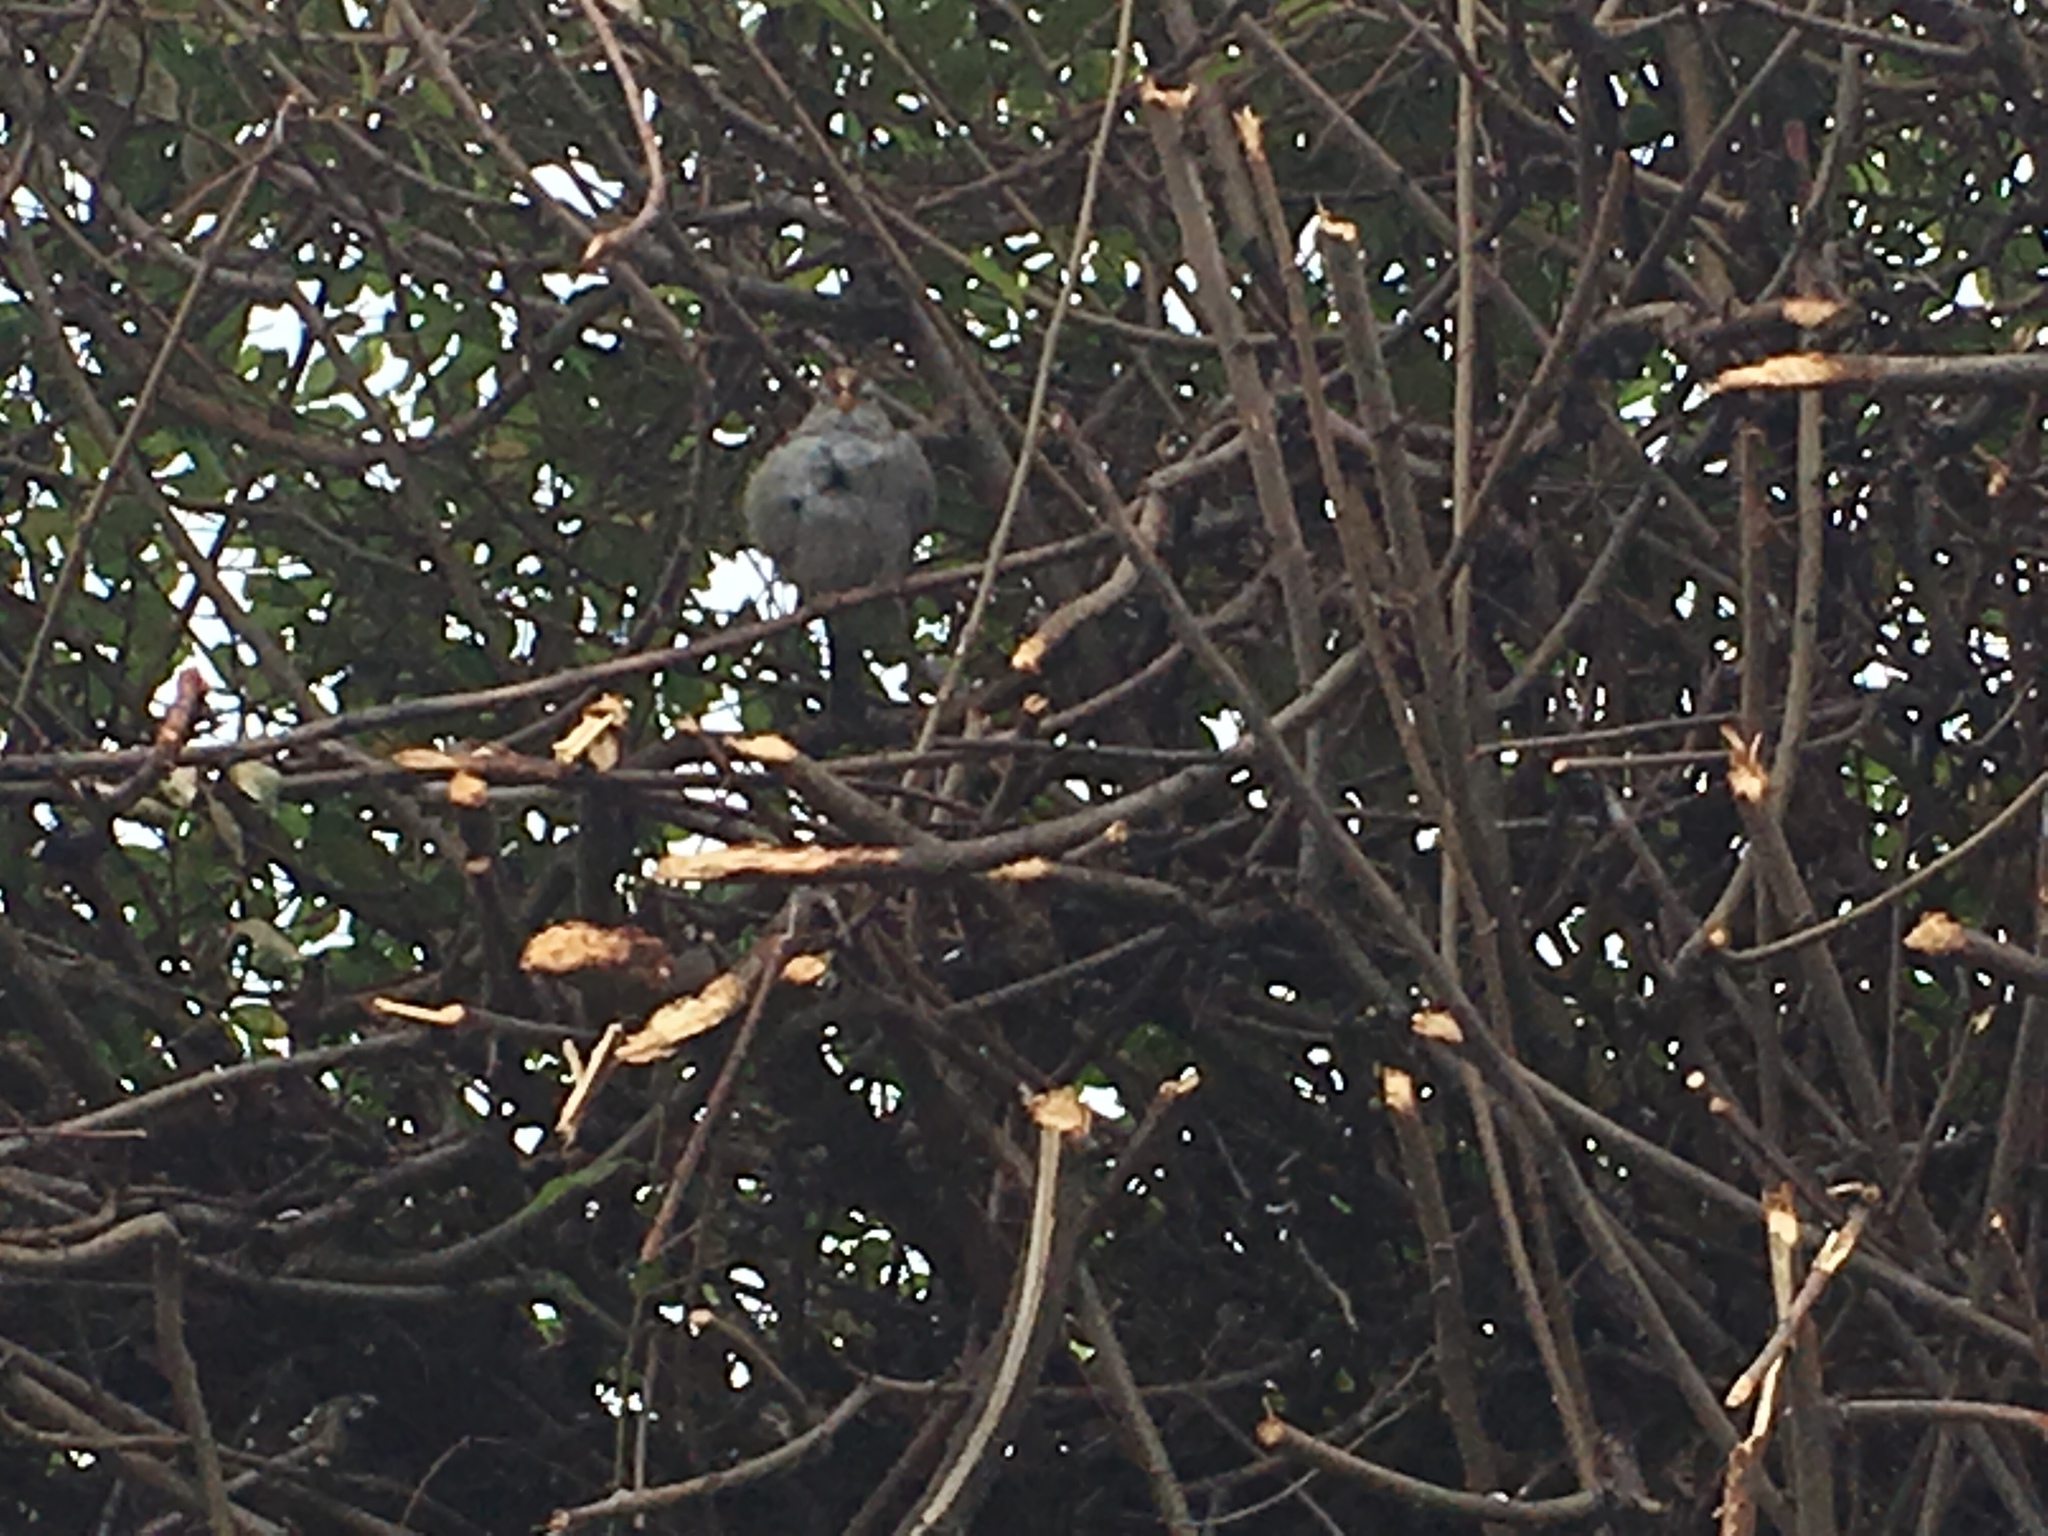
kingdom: Animalia
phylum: Chordata
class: Aves
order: Passeriformes
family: Passerellidae
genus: Zonotrichia
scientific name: Zonotrichia leucophrys
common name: White-crowned sparrow
